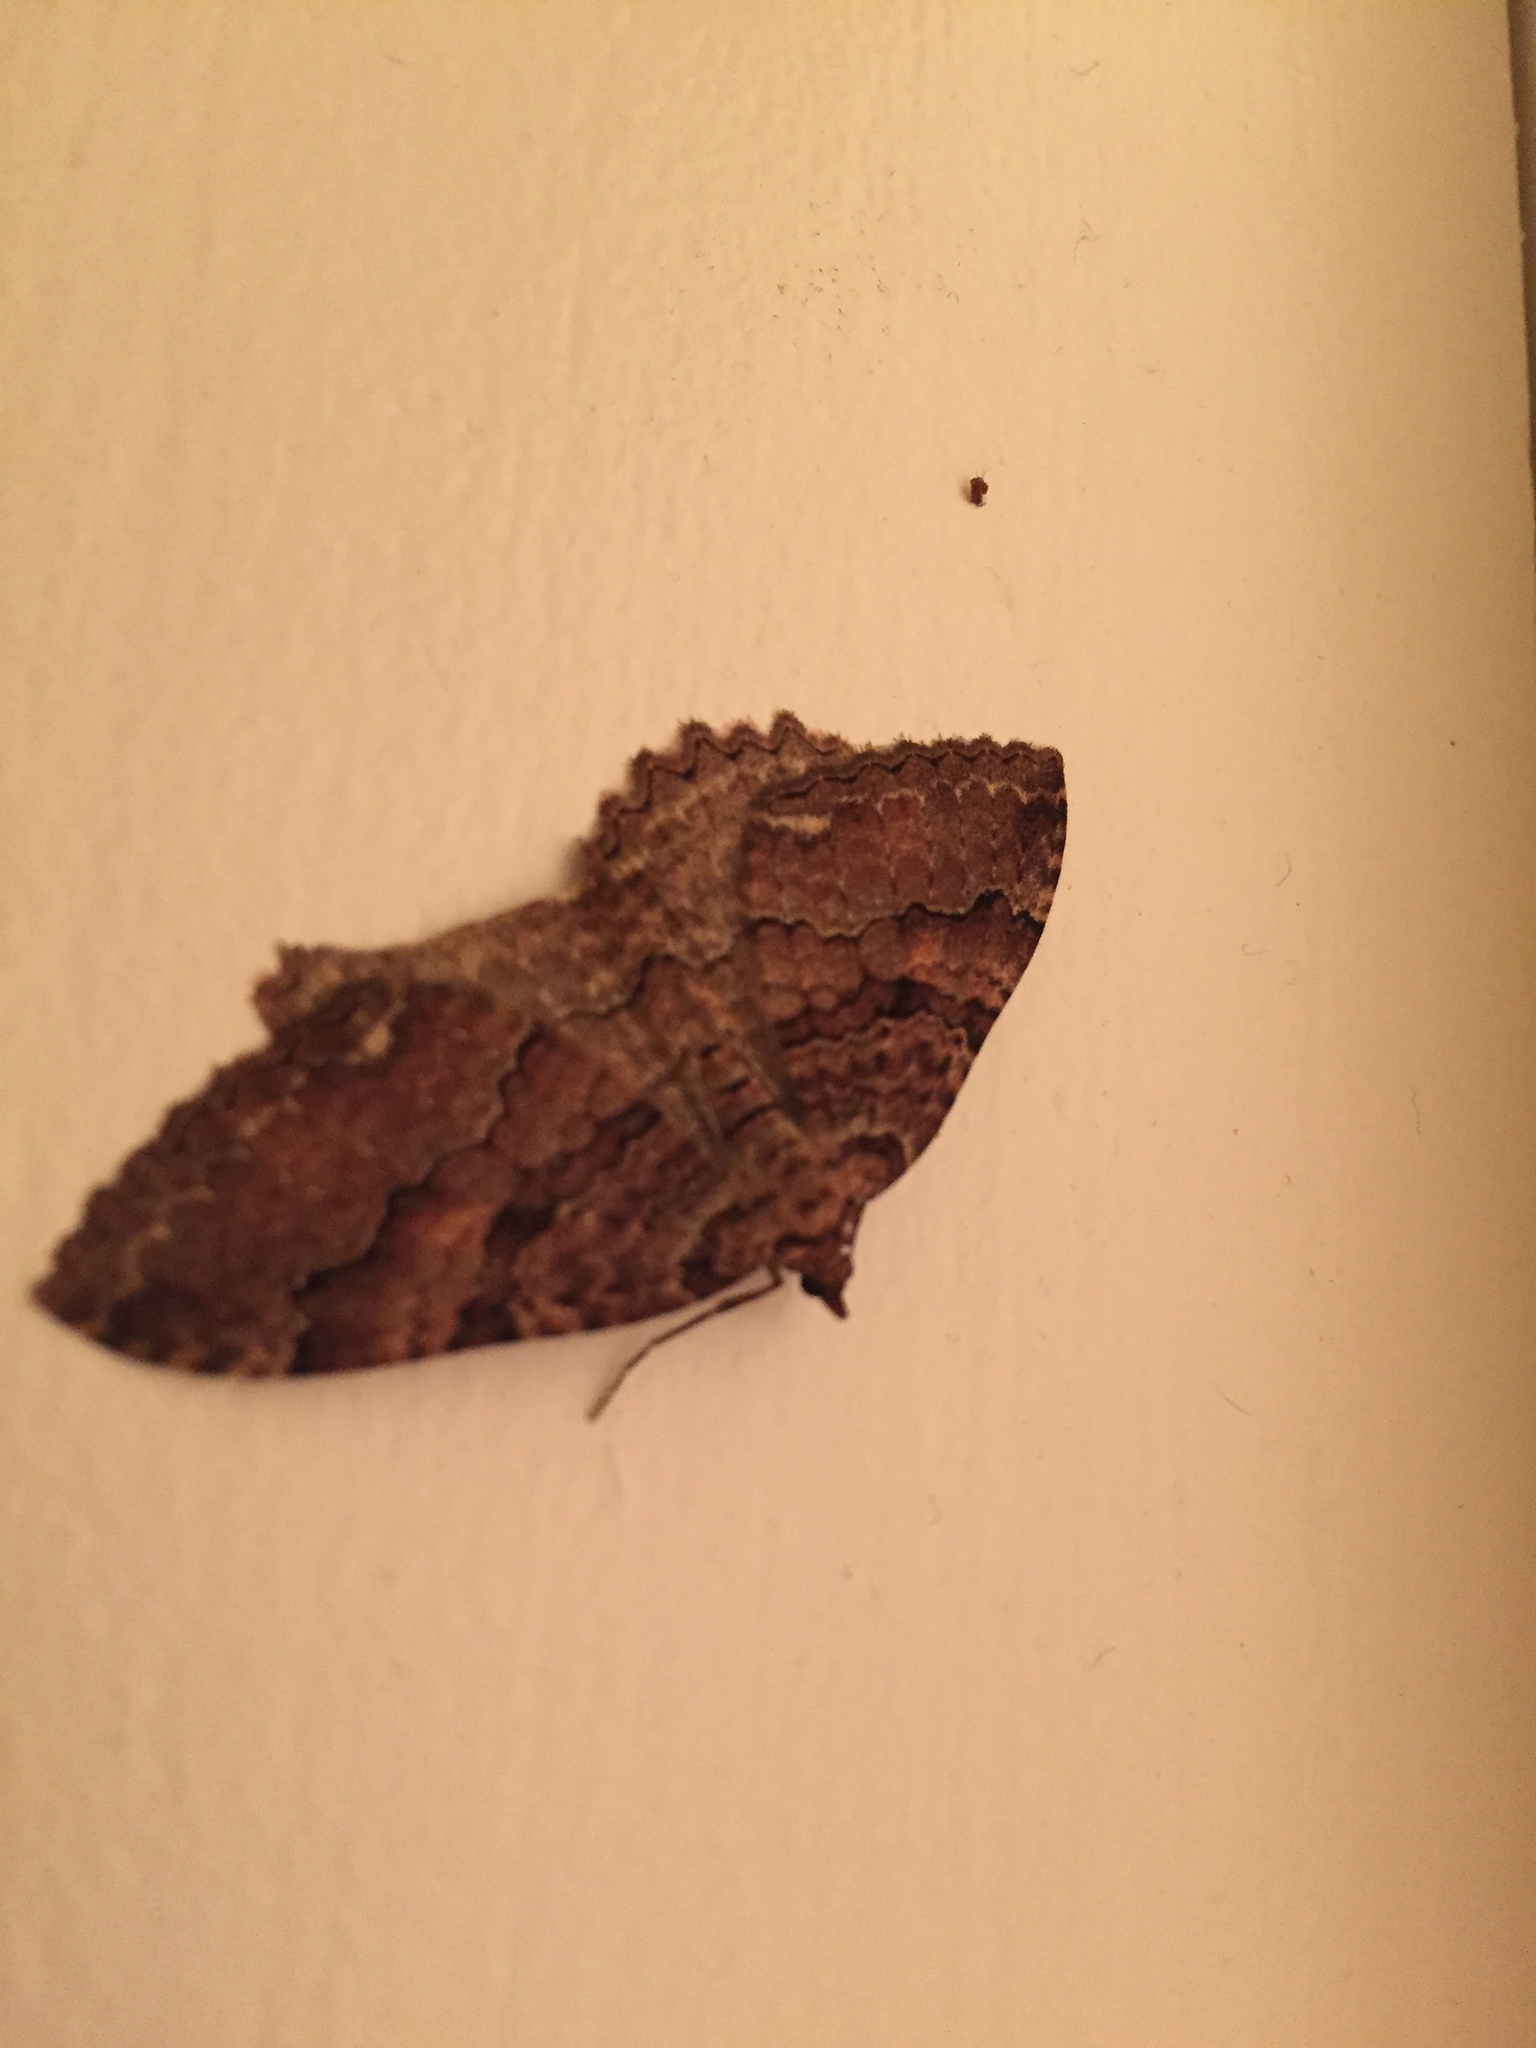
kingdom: Animalia
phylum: Arthropoda
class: Insecta
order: Lepidoptera
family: Geometridae
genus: Triphosa
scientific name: Triphosa haesitata
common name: Tissue moth
